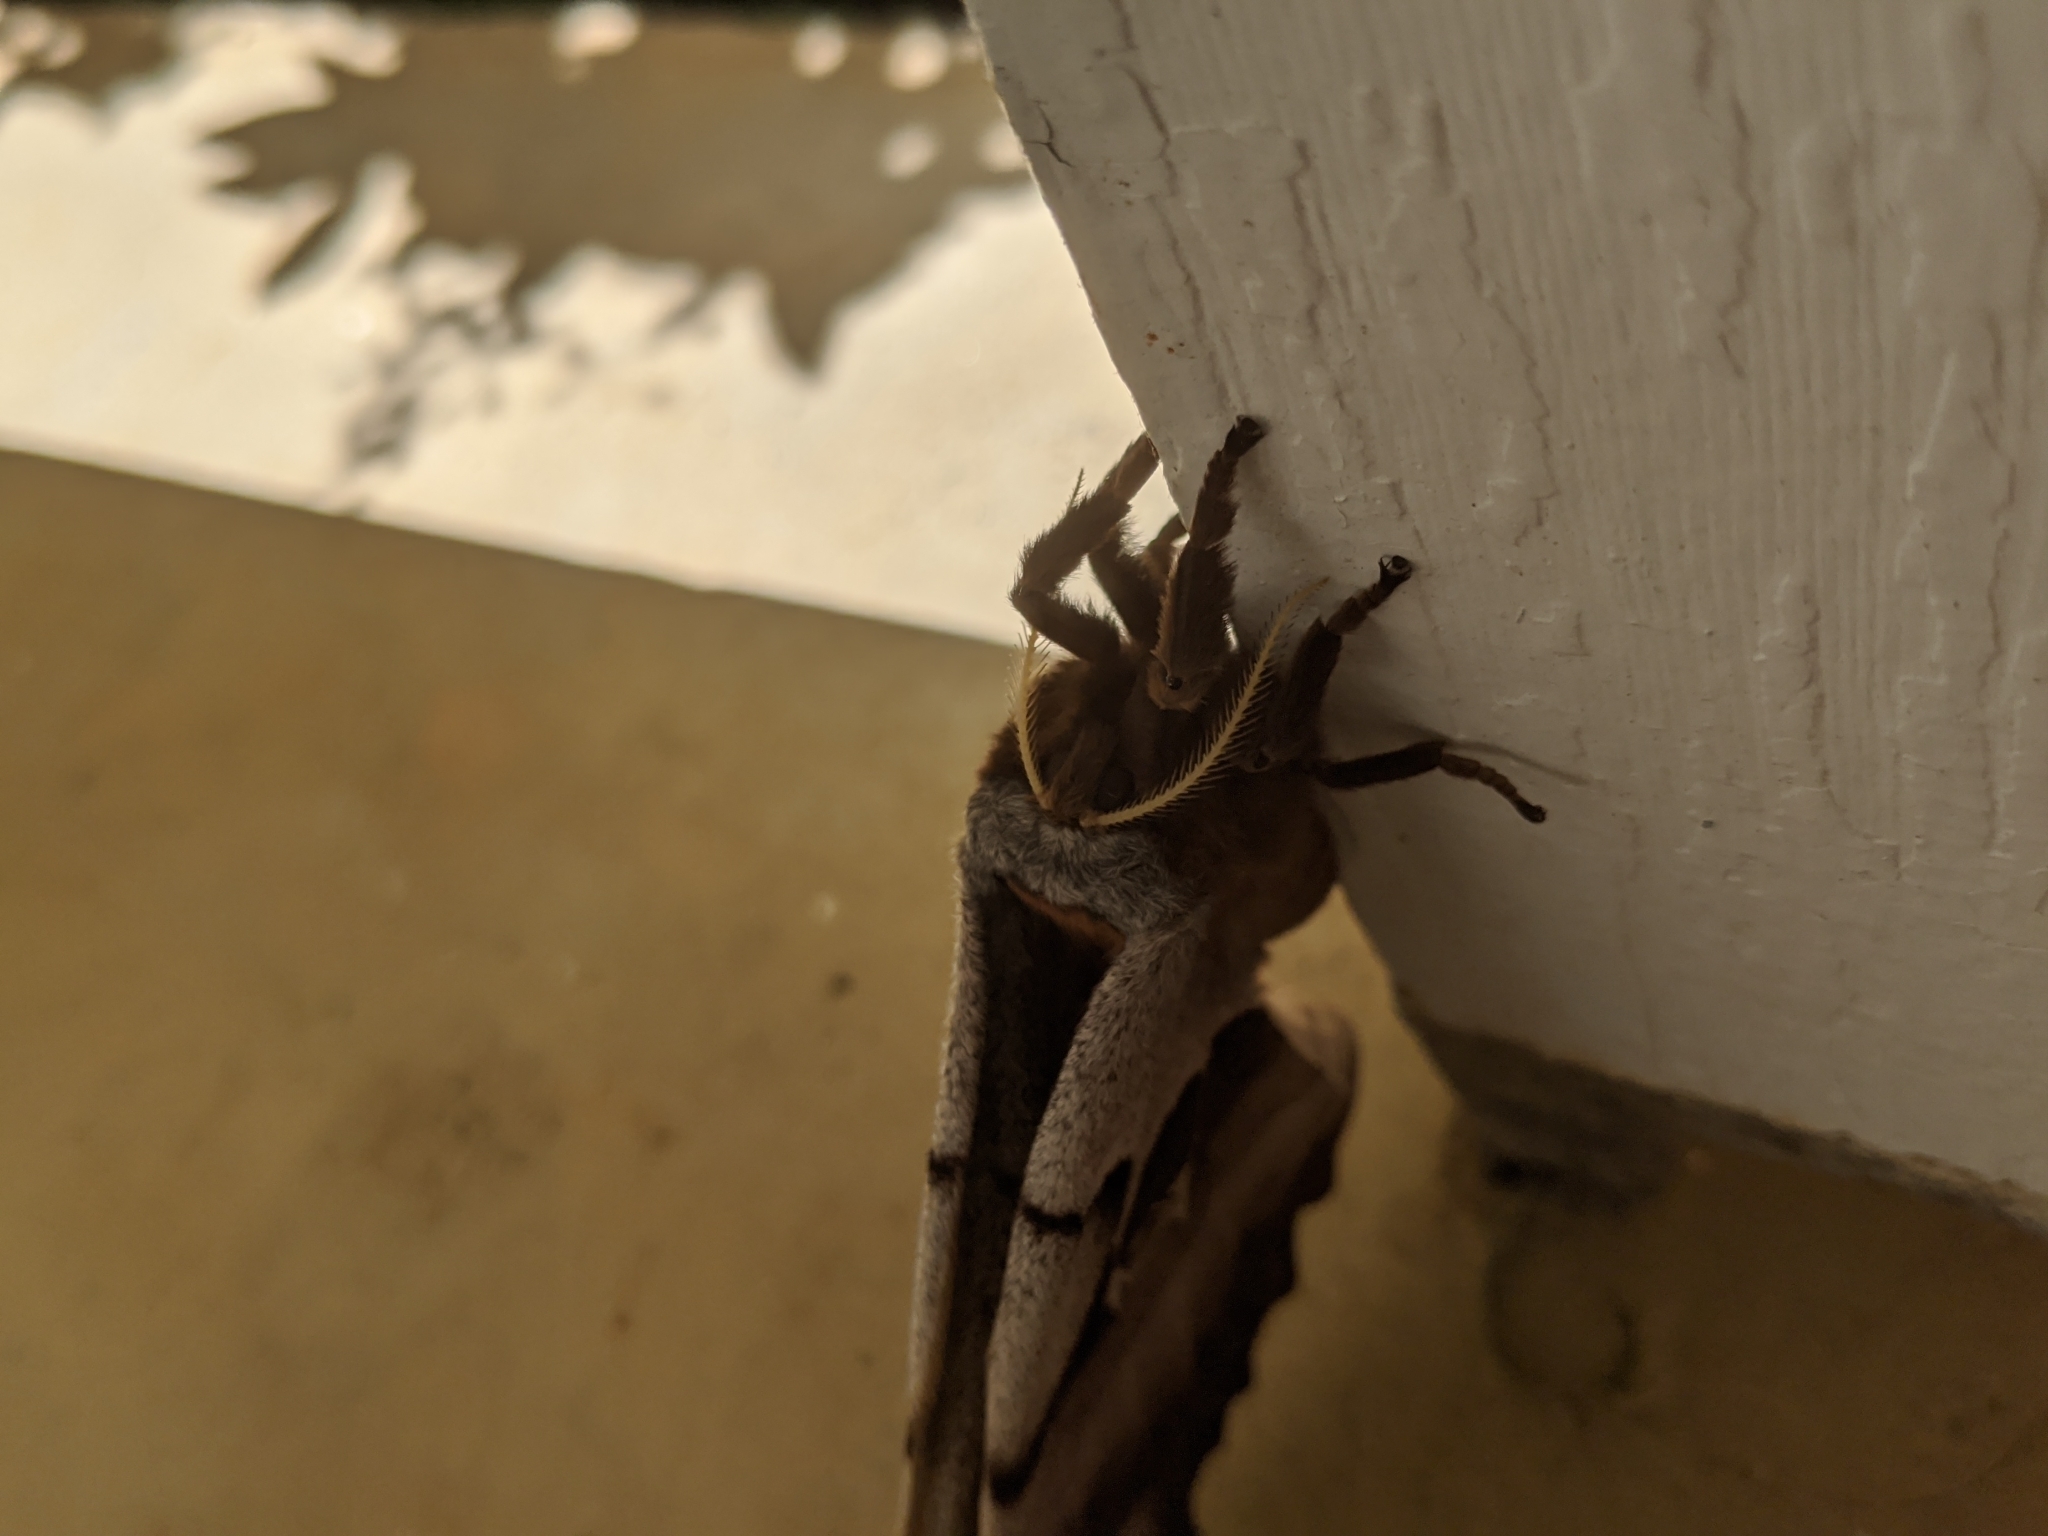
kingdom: Animalia
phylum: Arthropoda
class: Insecta
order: Lepidoptera
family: Saturniidae
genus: Antheraea
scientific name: Antheraea polyphemus
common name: Polyphemus moth
